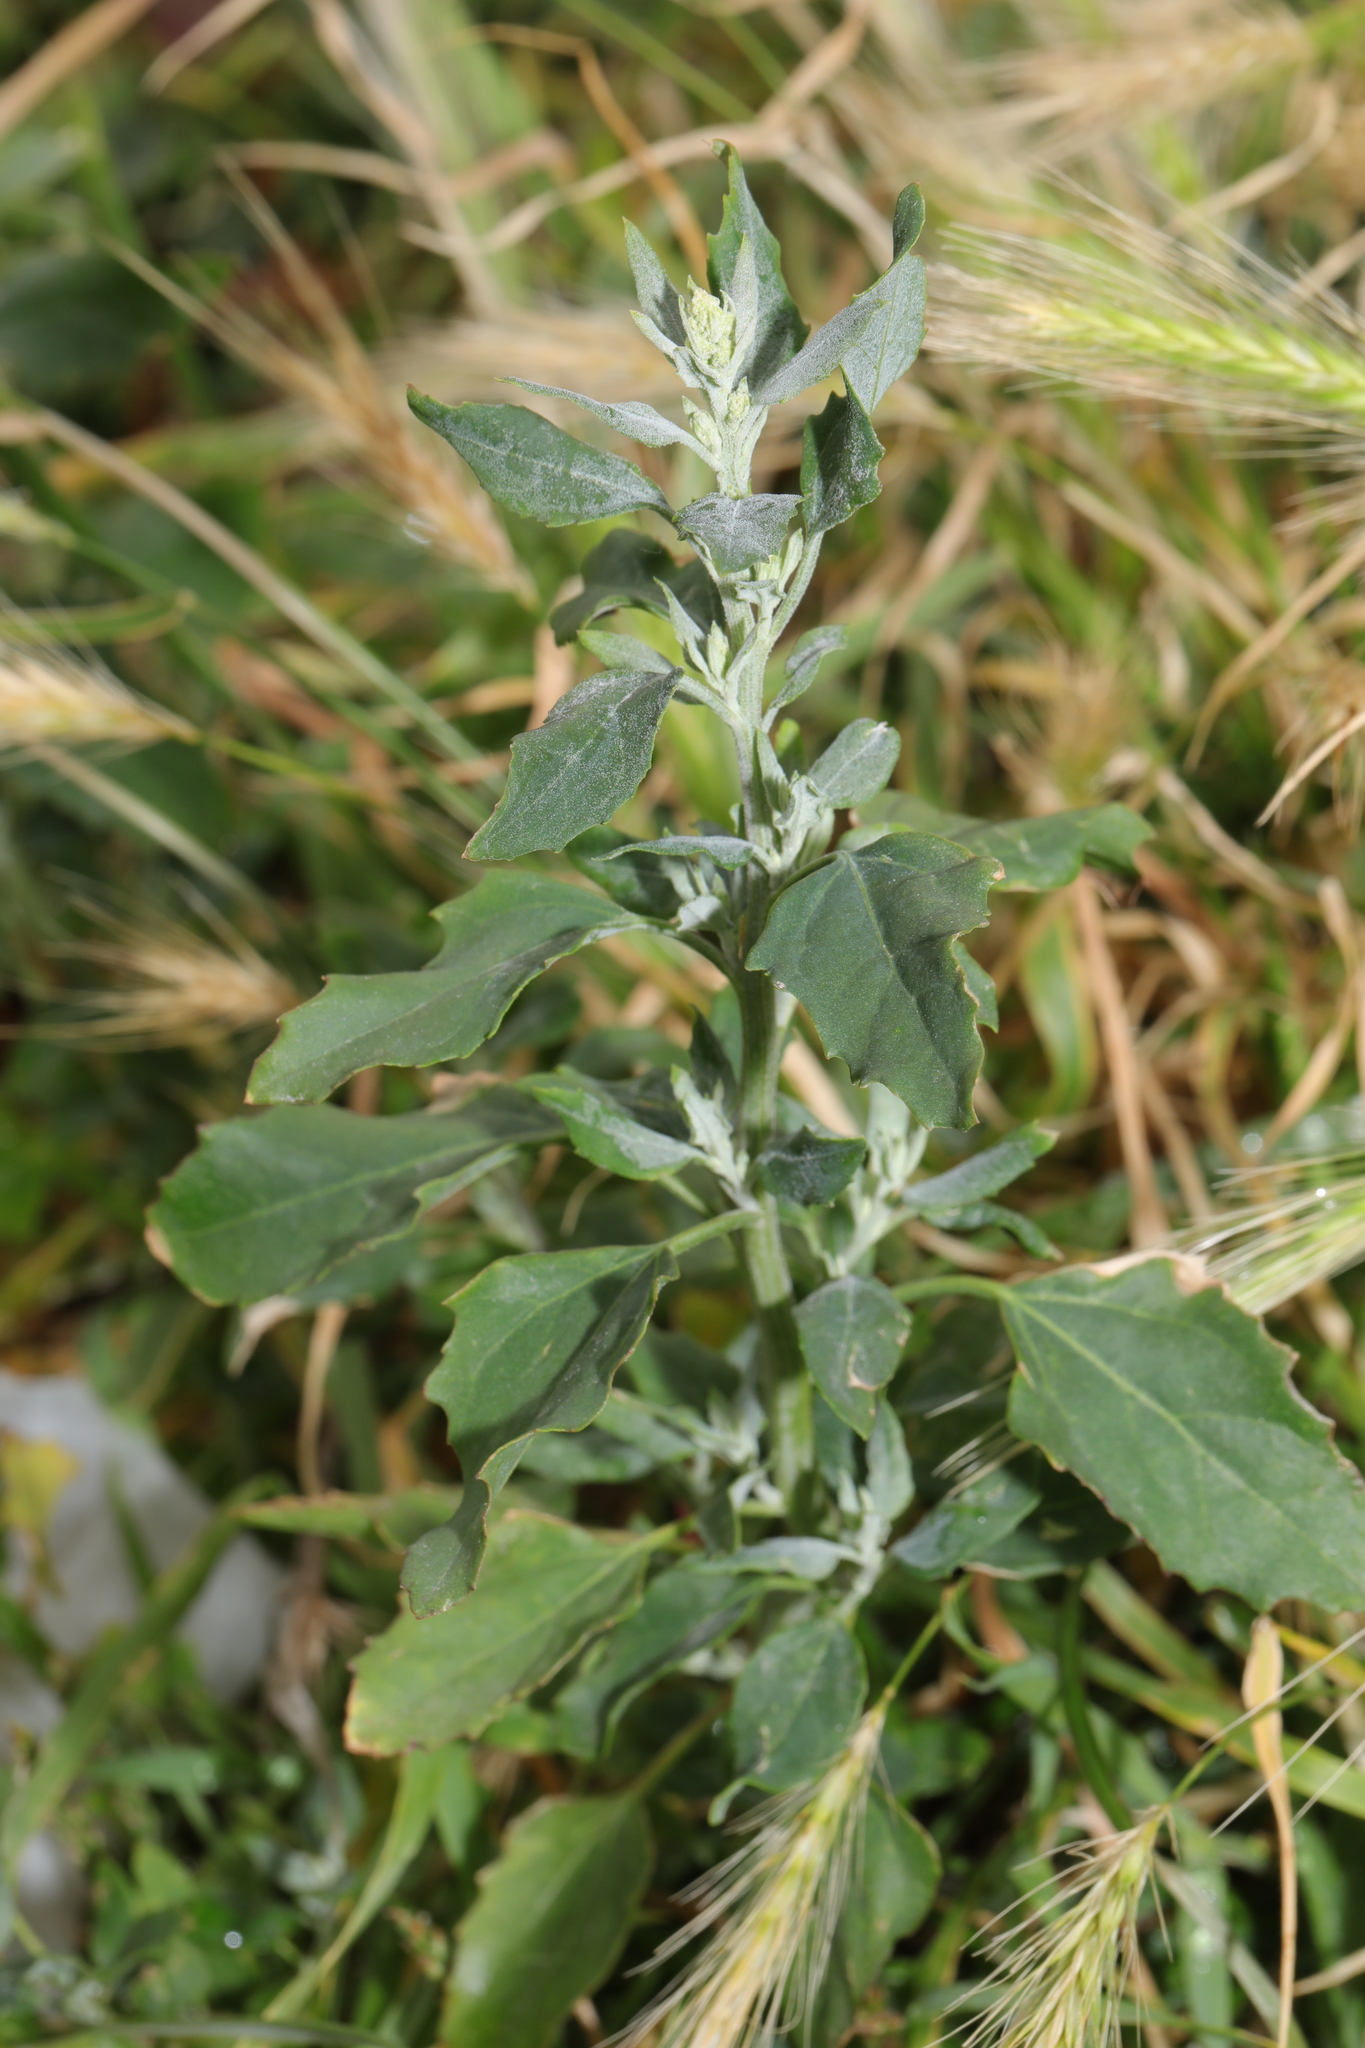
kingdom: Plantae
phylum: Tracheophyta
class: Magnoliopsida
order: Caryophyllales
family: Amaranthaceae
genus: Chenopodium
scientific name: Chenopodium album
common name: Fat-hen
